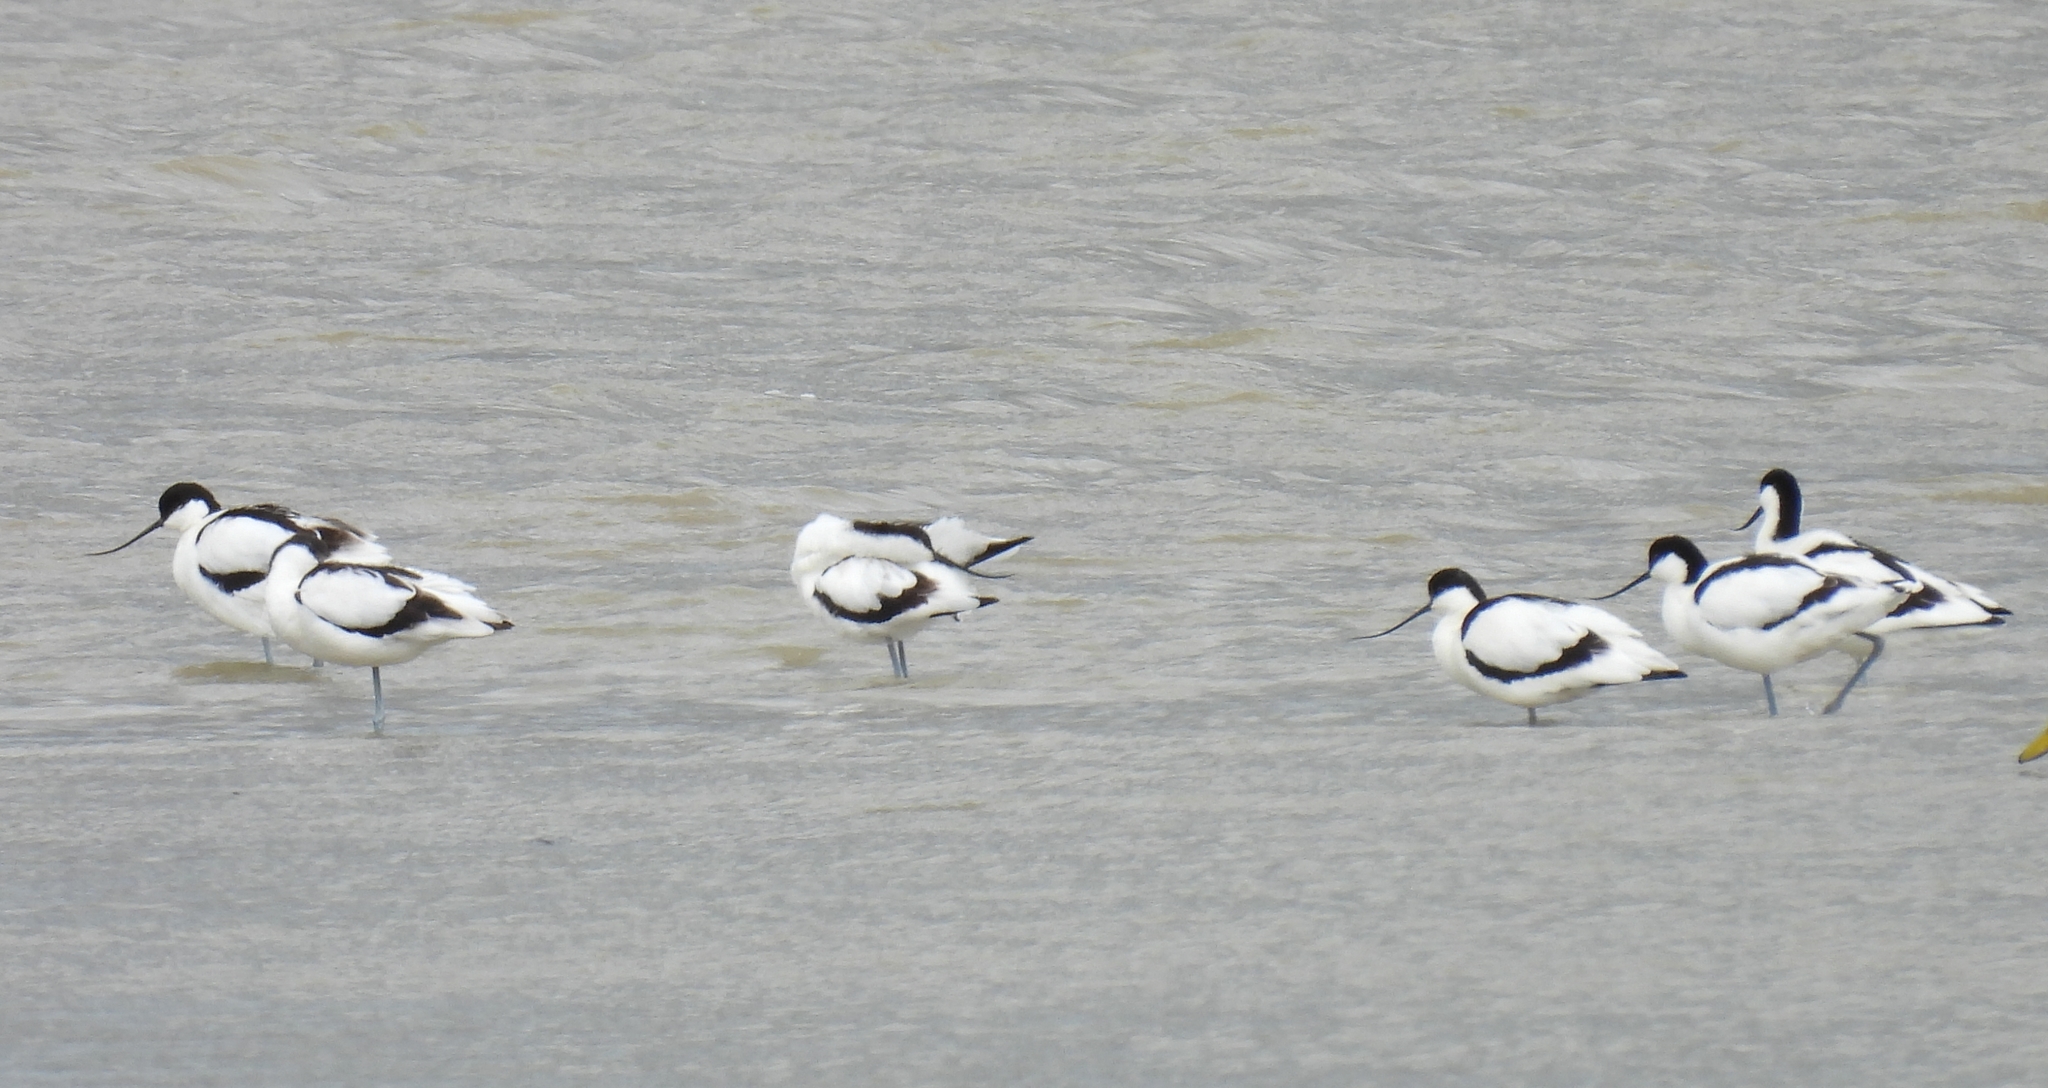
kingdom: Animalia
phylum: Chordata
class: Aves
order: Charadriiformes
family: Recurvirostridae
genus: Recurvirostra
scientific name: Recurvirostra avosetta
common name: Pied avocet
